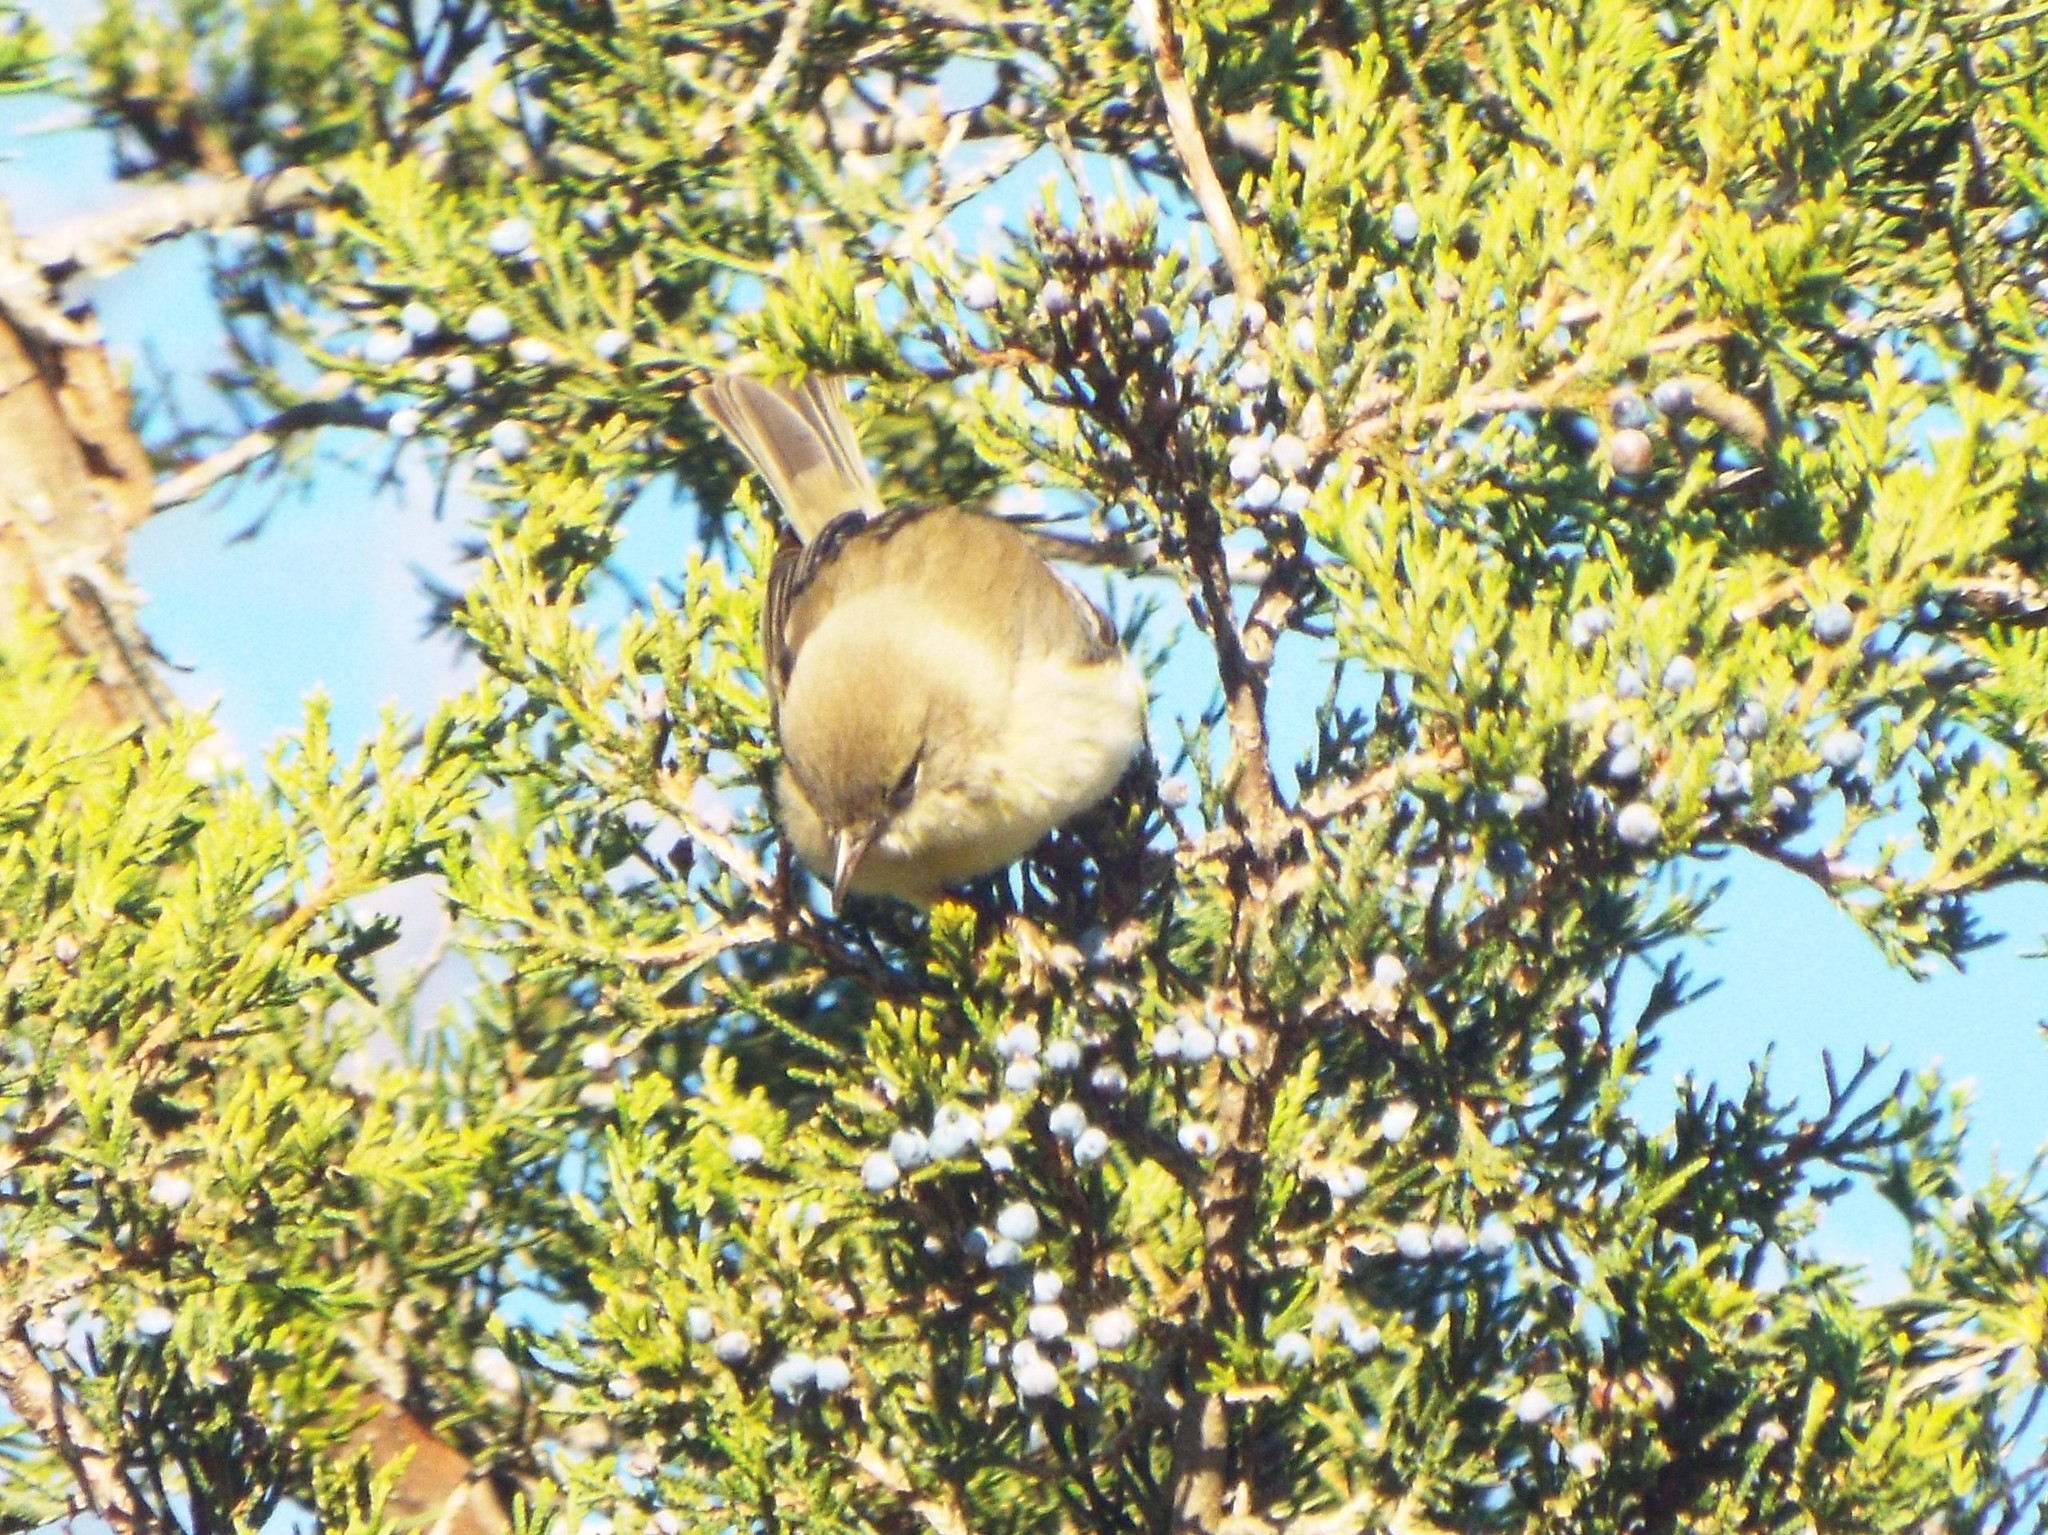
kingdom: Animalia
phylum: Chordata
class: Aves
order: Passeriformes
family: Parulidae
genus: Setophaga
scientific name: Setophaga pinus
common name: Pine warbler
